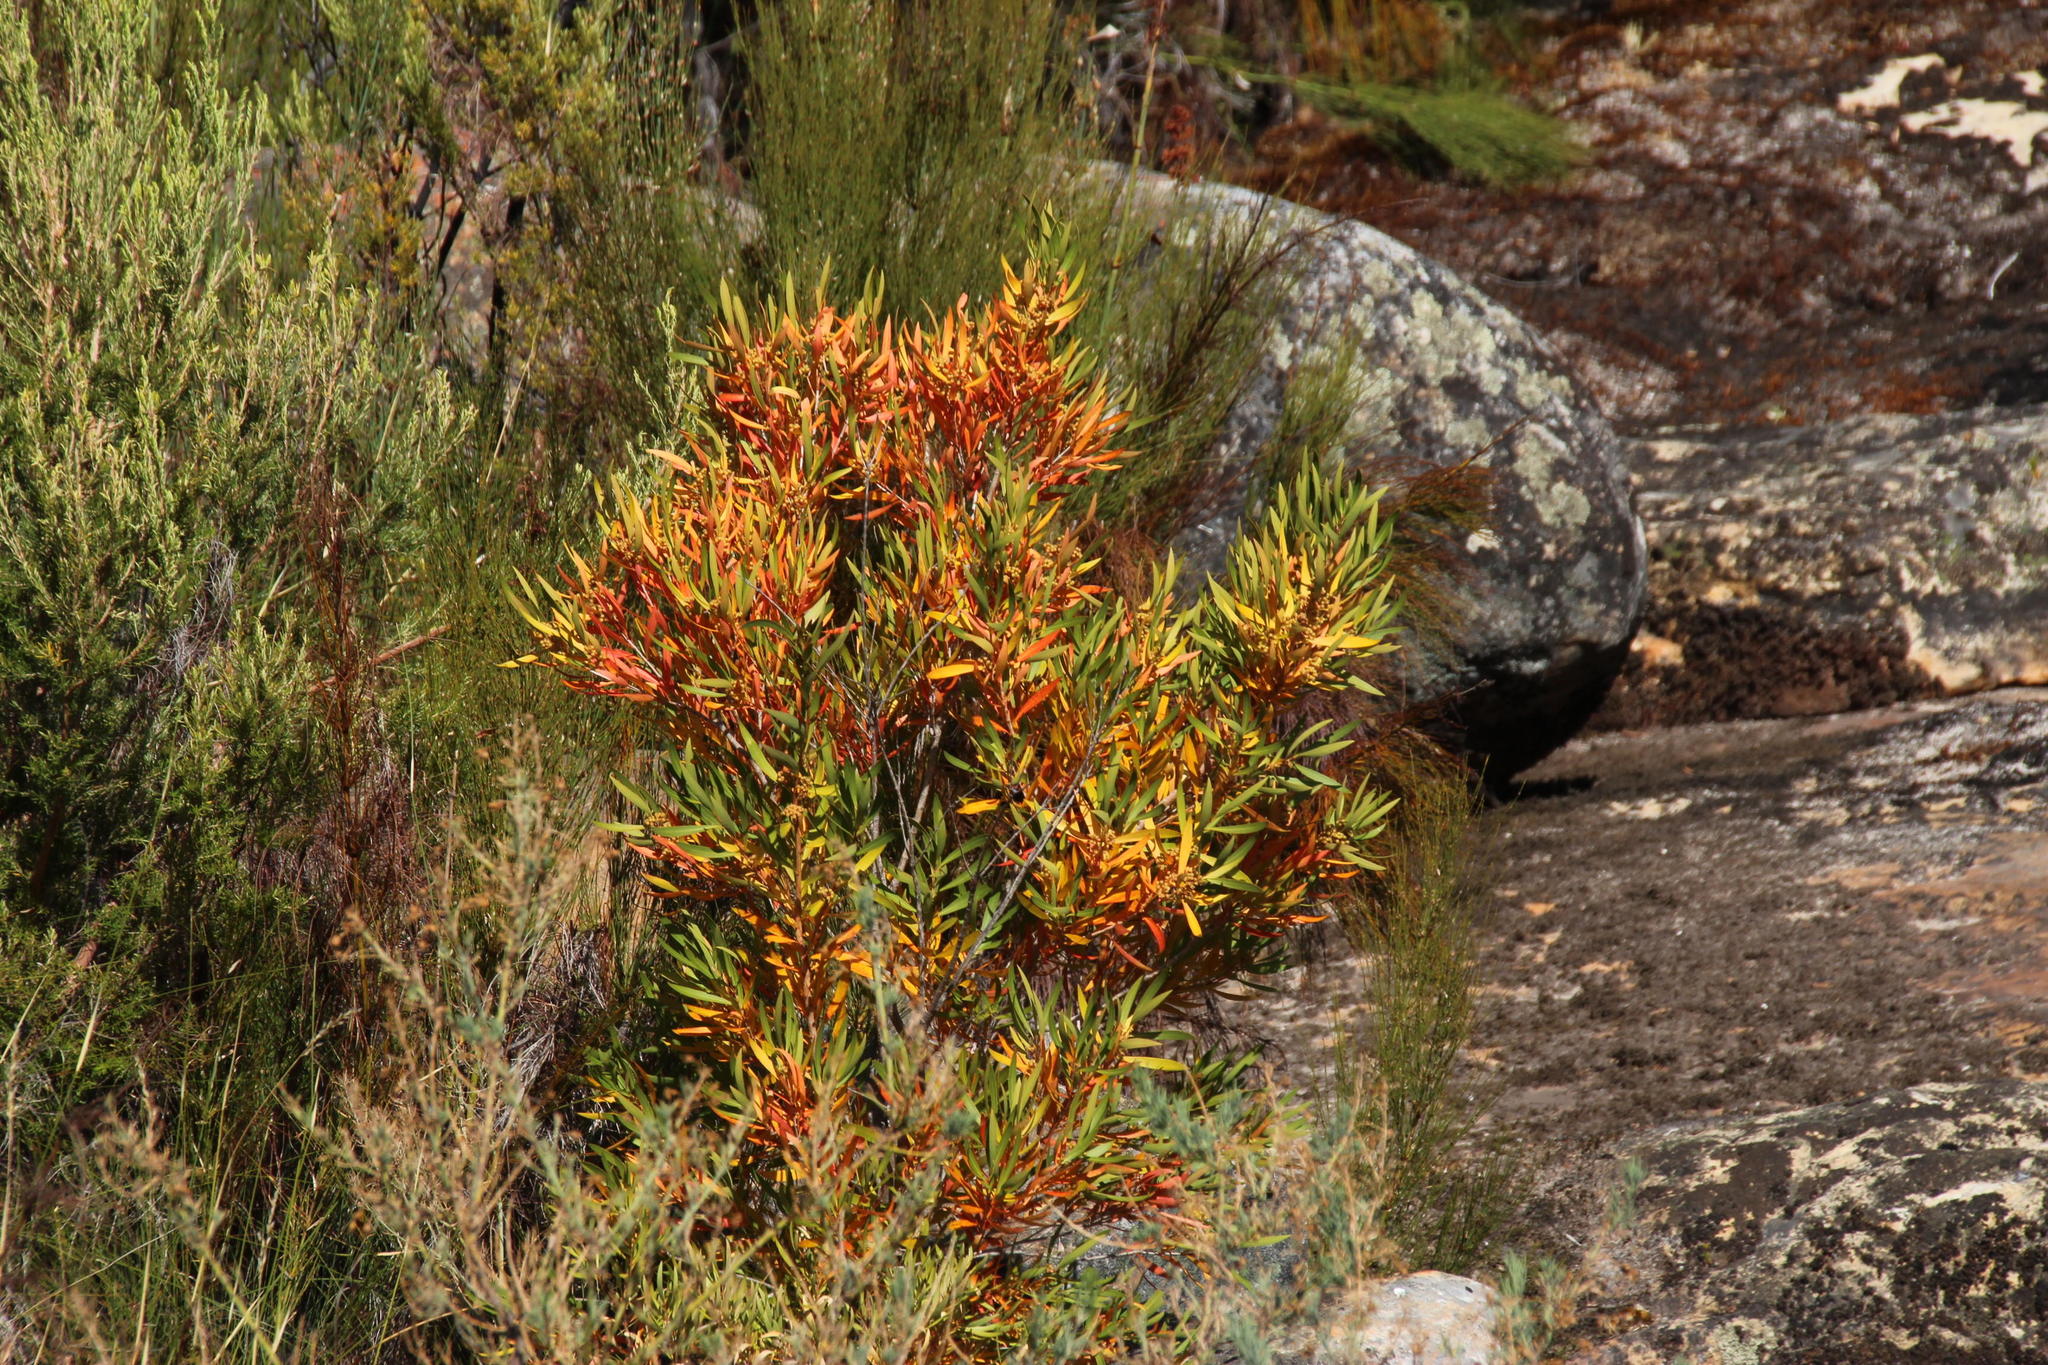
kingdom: Plantae
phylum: Tracheophyta
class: Magnoliopsida
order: Myrtales
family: Myrtaceae
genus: Callistemon
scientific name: Callistemon lanceolatus
